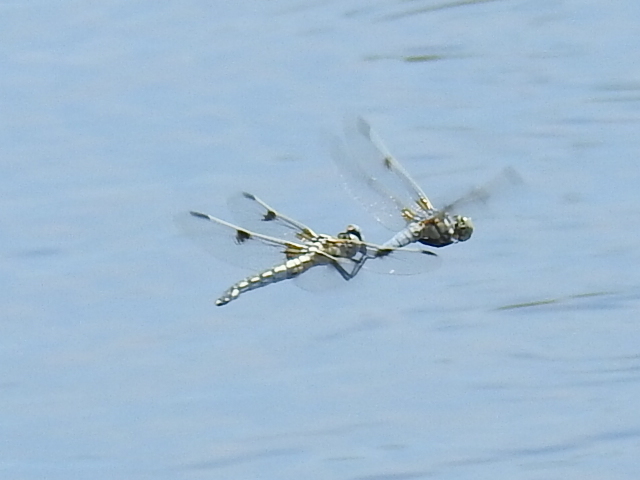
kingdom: Animalia
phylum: Arthropoda
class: Insecta
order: Odonata
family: Libellulidae
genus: Libellula
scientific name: Libellula composita
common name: Bleached skimmer
